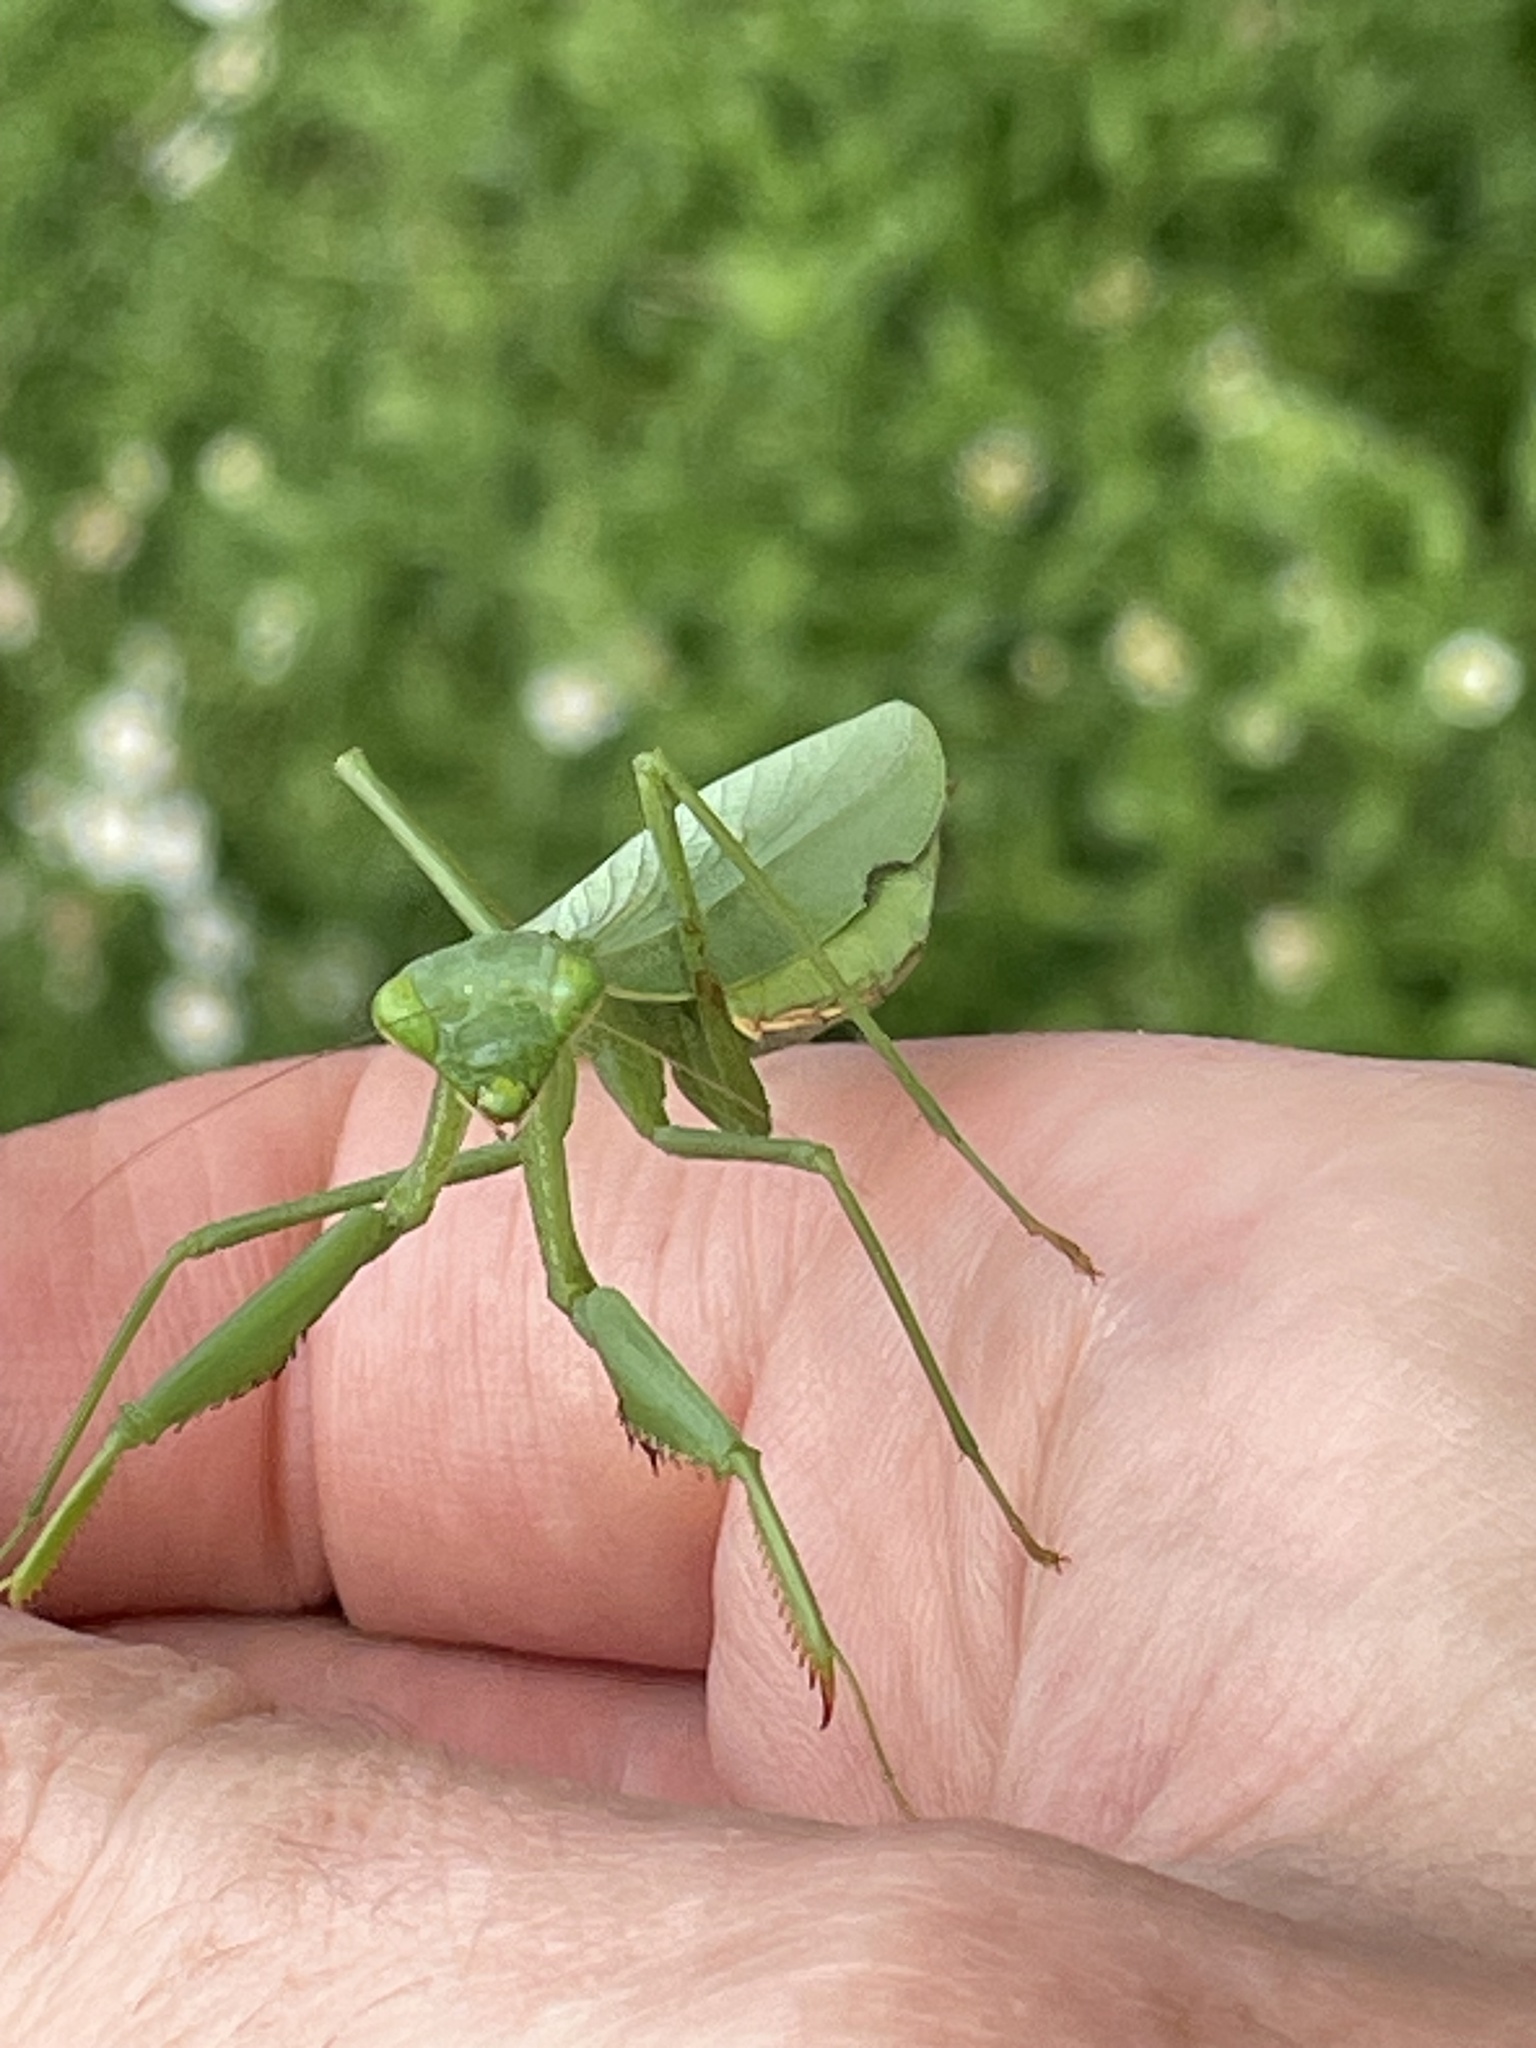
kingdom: Animalia
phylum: Arthropoda
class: Insecta
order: Mantodea
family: Miomantidae
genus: Miomantis
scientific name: Miomantis caffra
